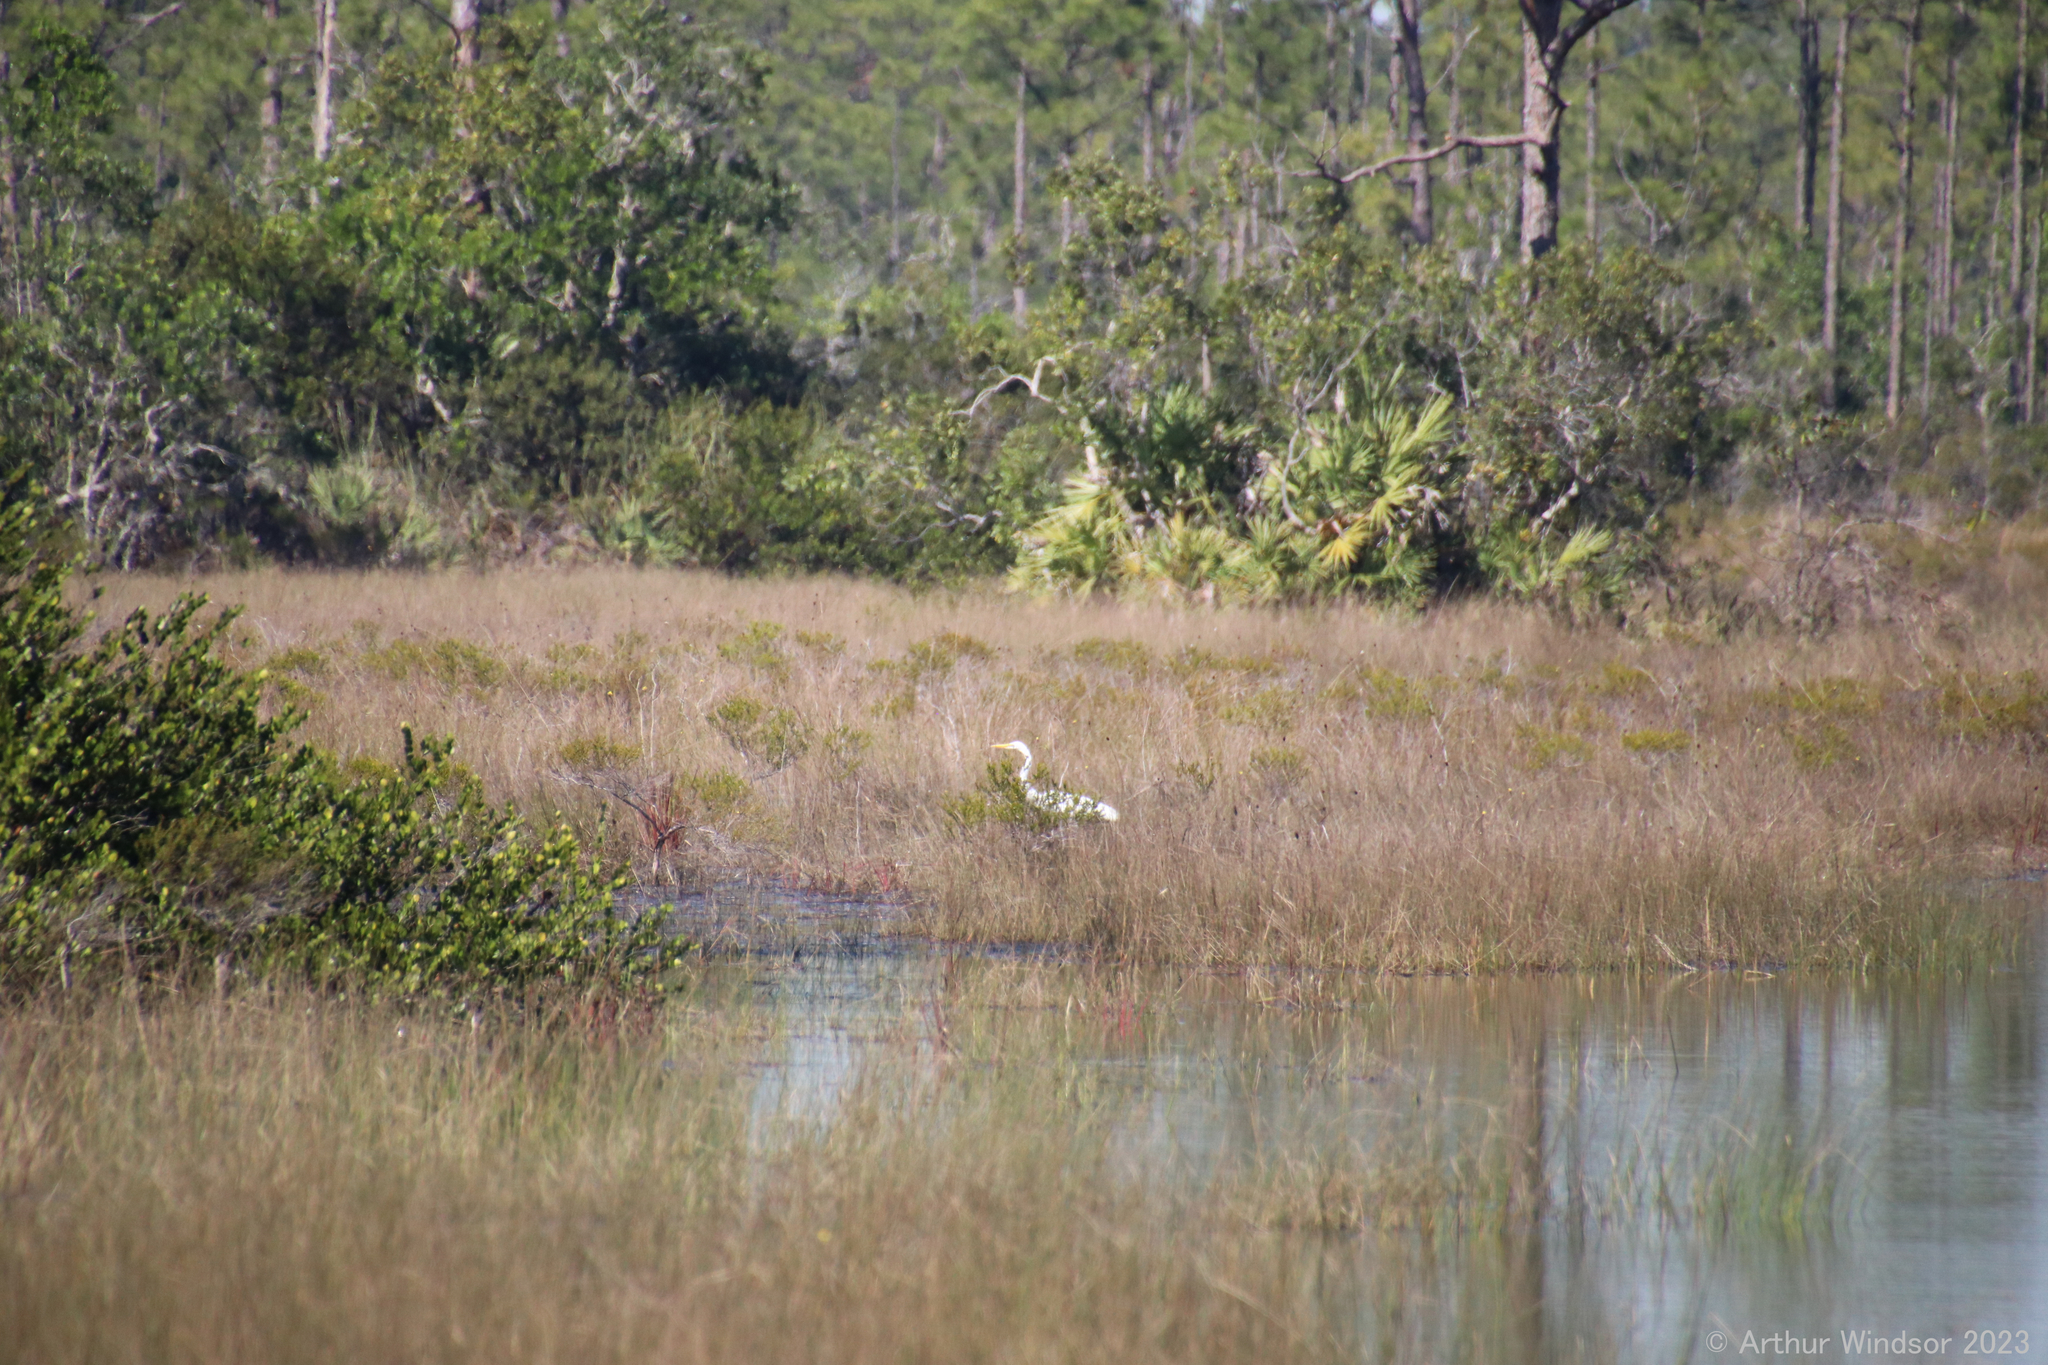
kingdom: Animalia
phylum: Chordata
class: Aves
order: Pelecaniformes
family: Ardeidae
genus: Ardea
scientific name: Ardea alba
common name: Great egret
